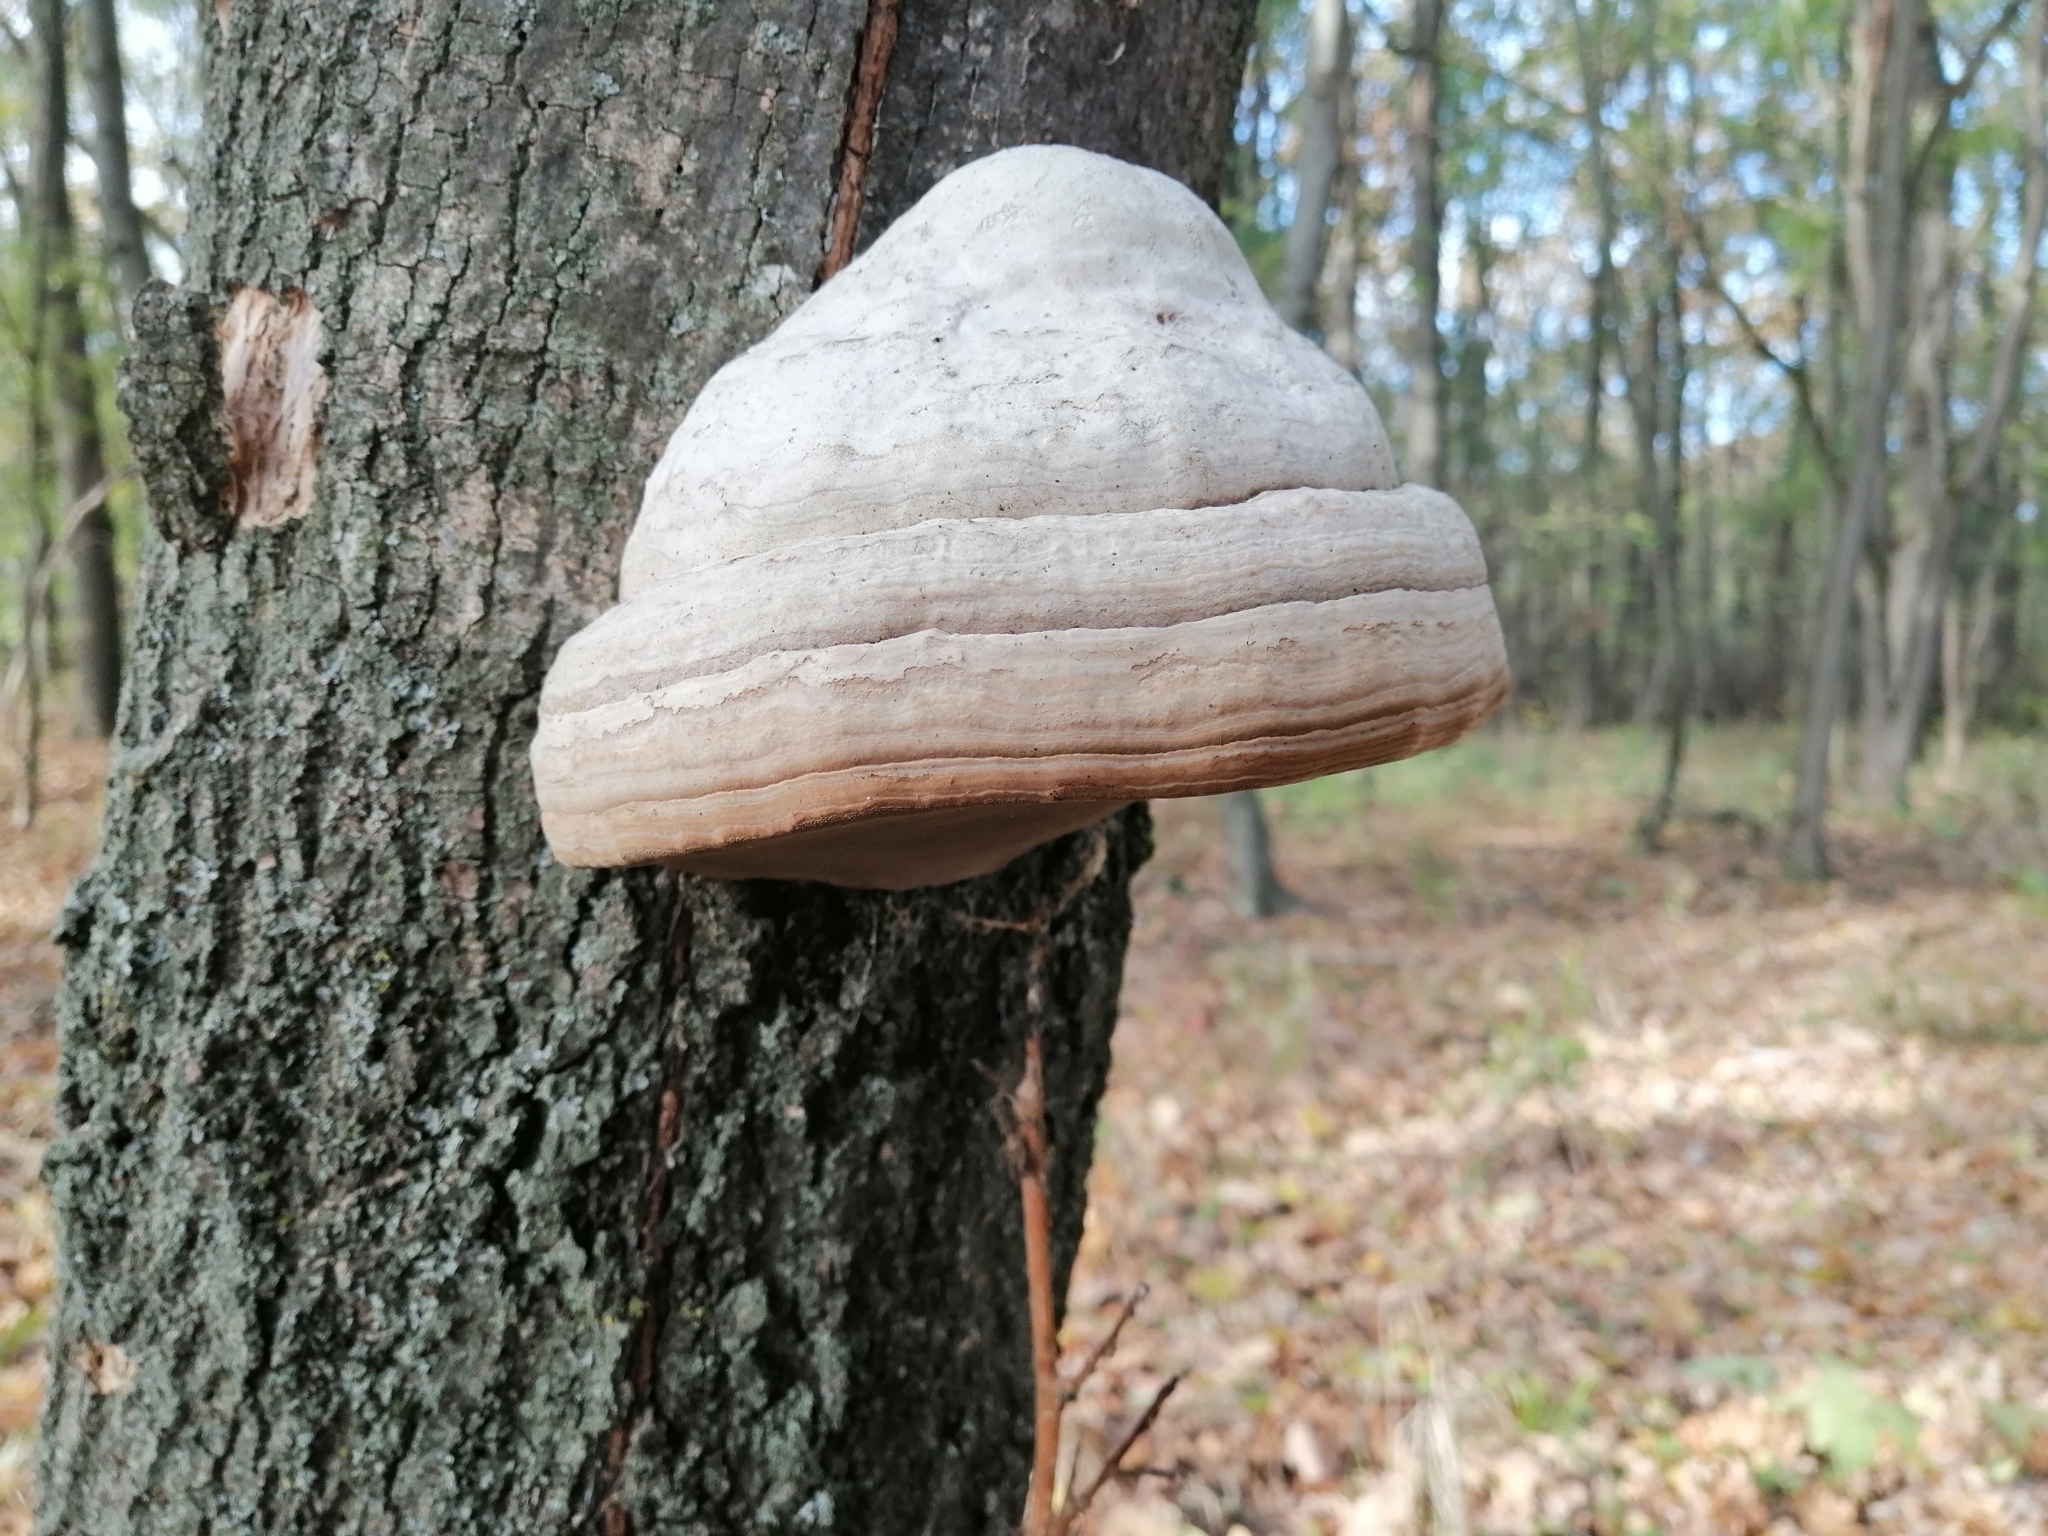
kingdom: Fungi
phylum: Basidiomycota
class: Agaricomycetes
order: Polyporales
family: Polyporaceae
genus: Fomes
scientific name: Fomes fomentarius
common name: Hoof fungus
